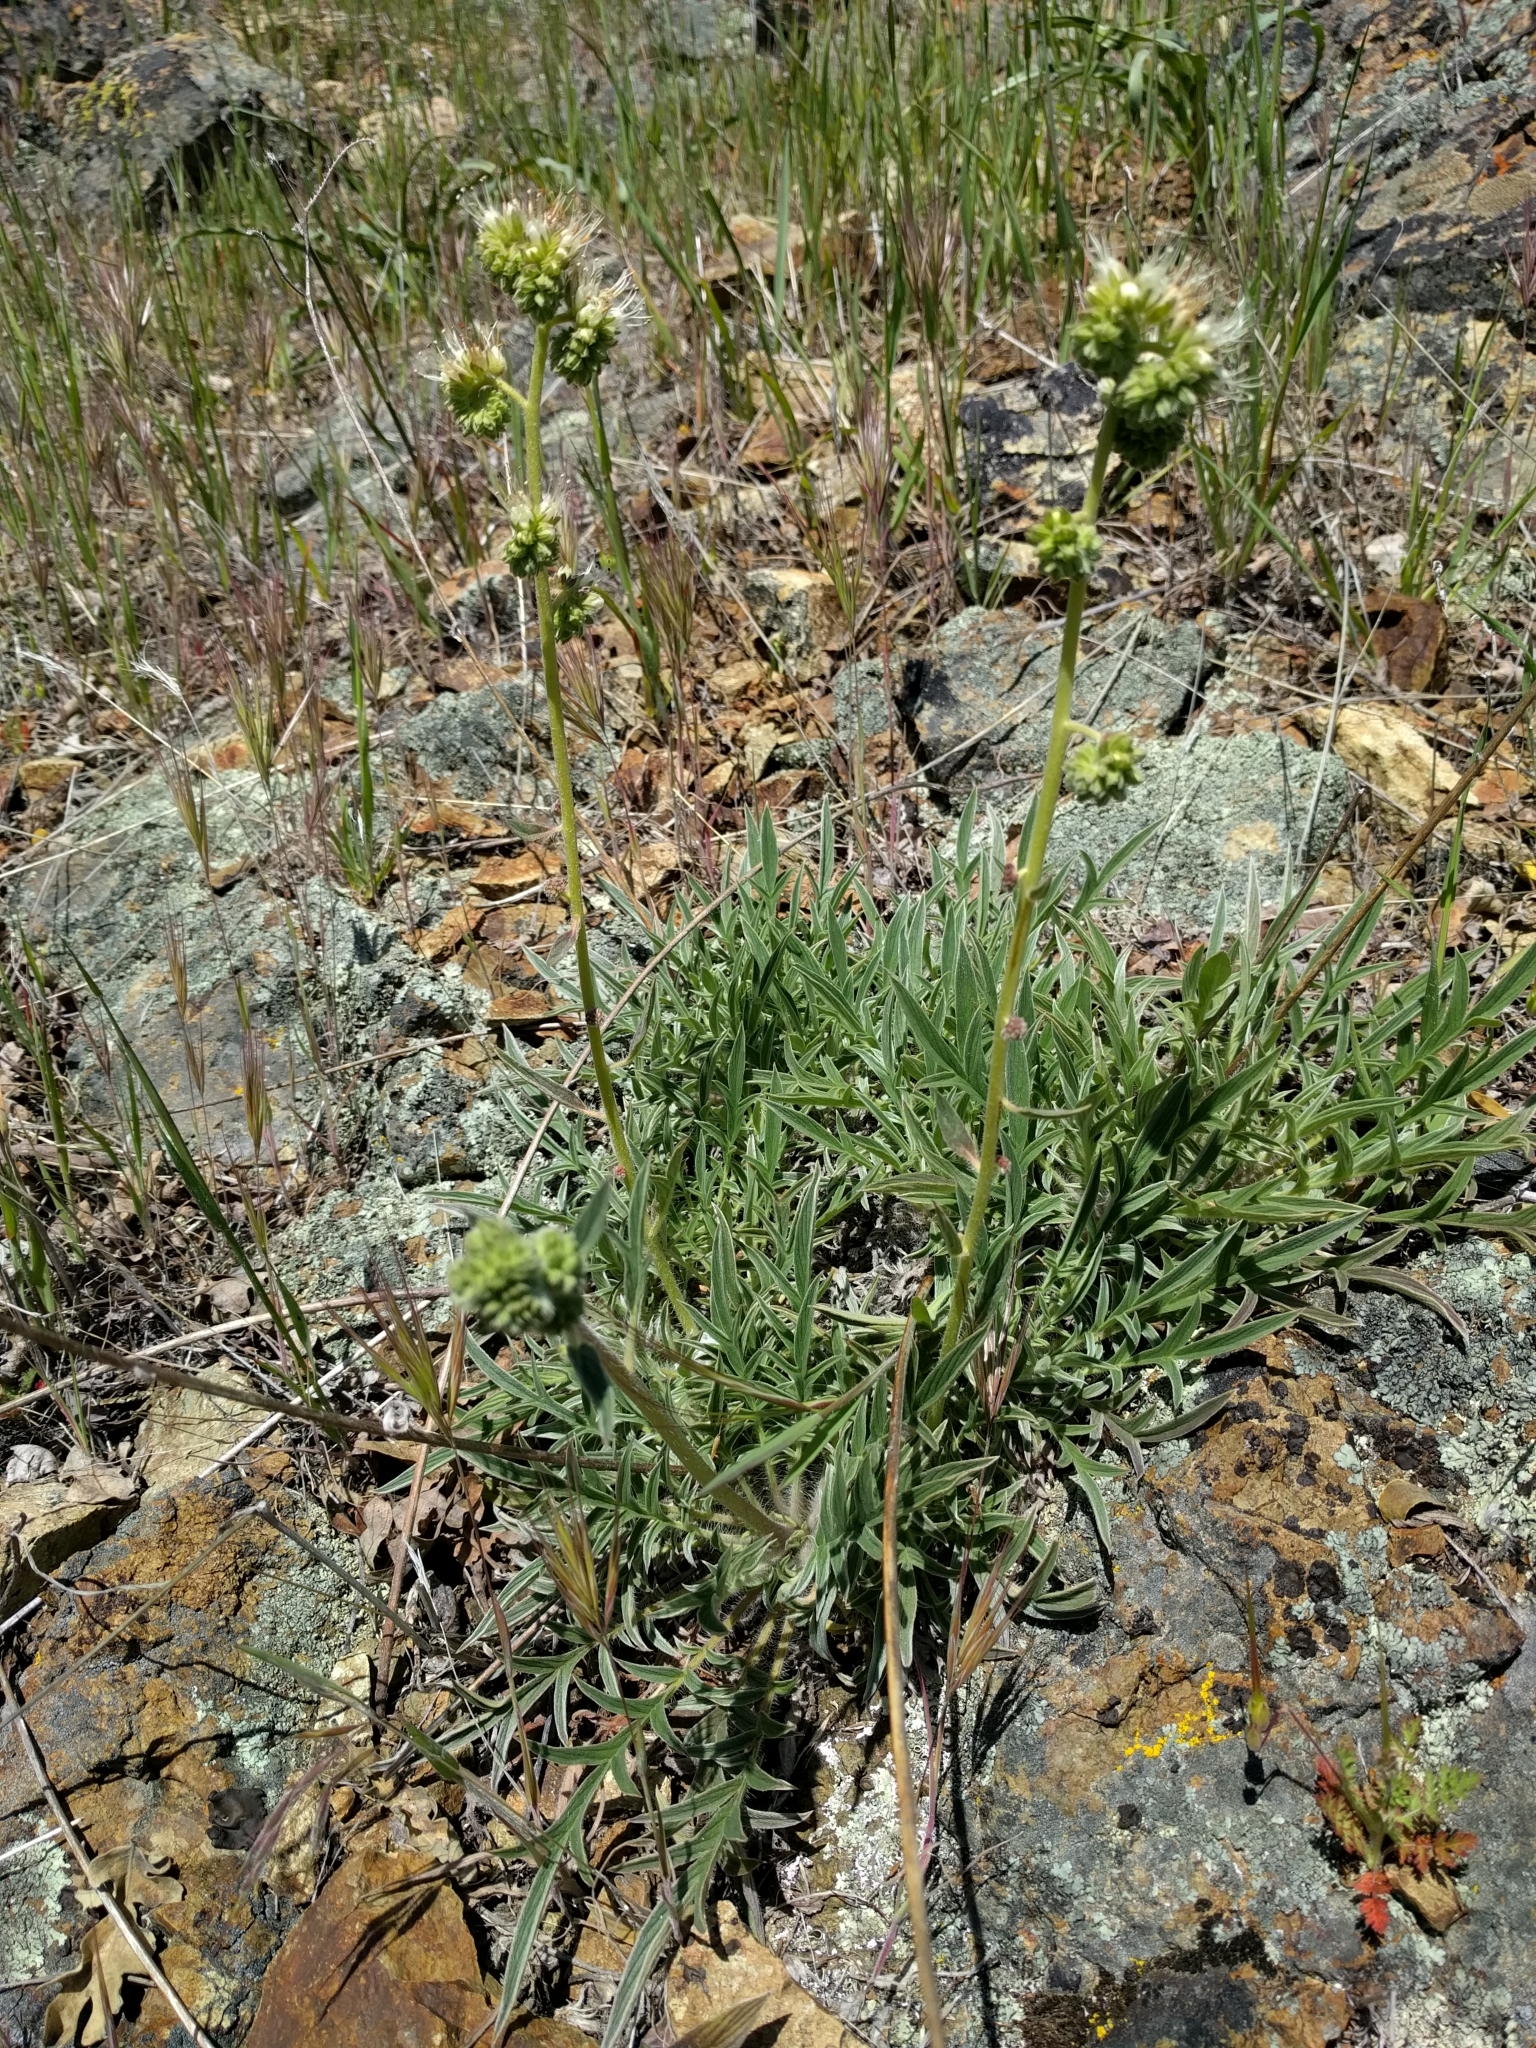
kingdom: Plantae
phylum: Tracheophyta
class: Magnoliopsida
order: Boraginales
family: Hydrophyllaceae
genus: Phacelia
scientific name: Phacelia imbricata
